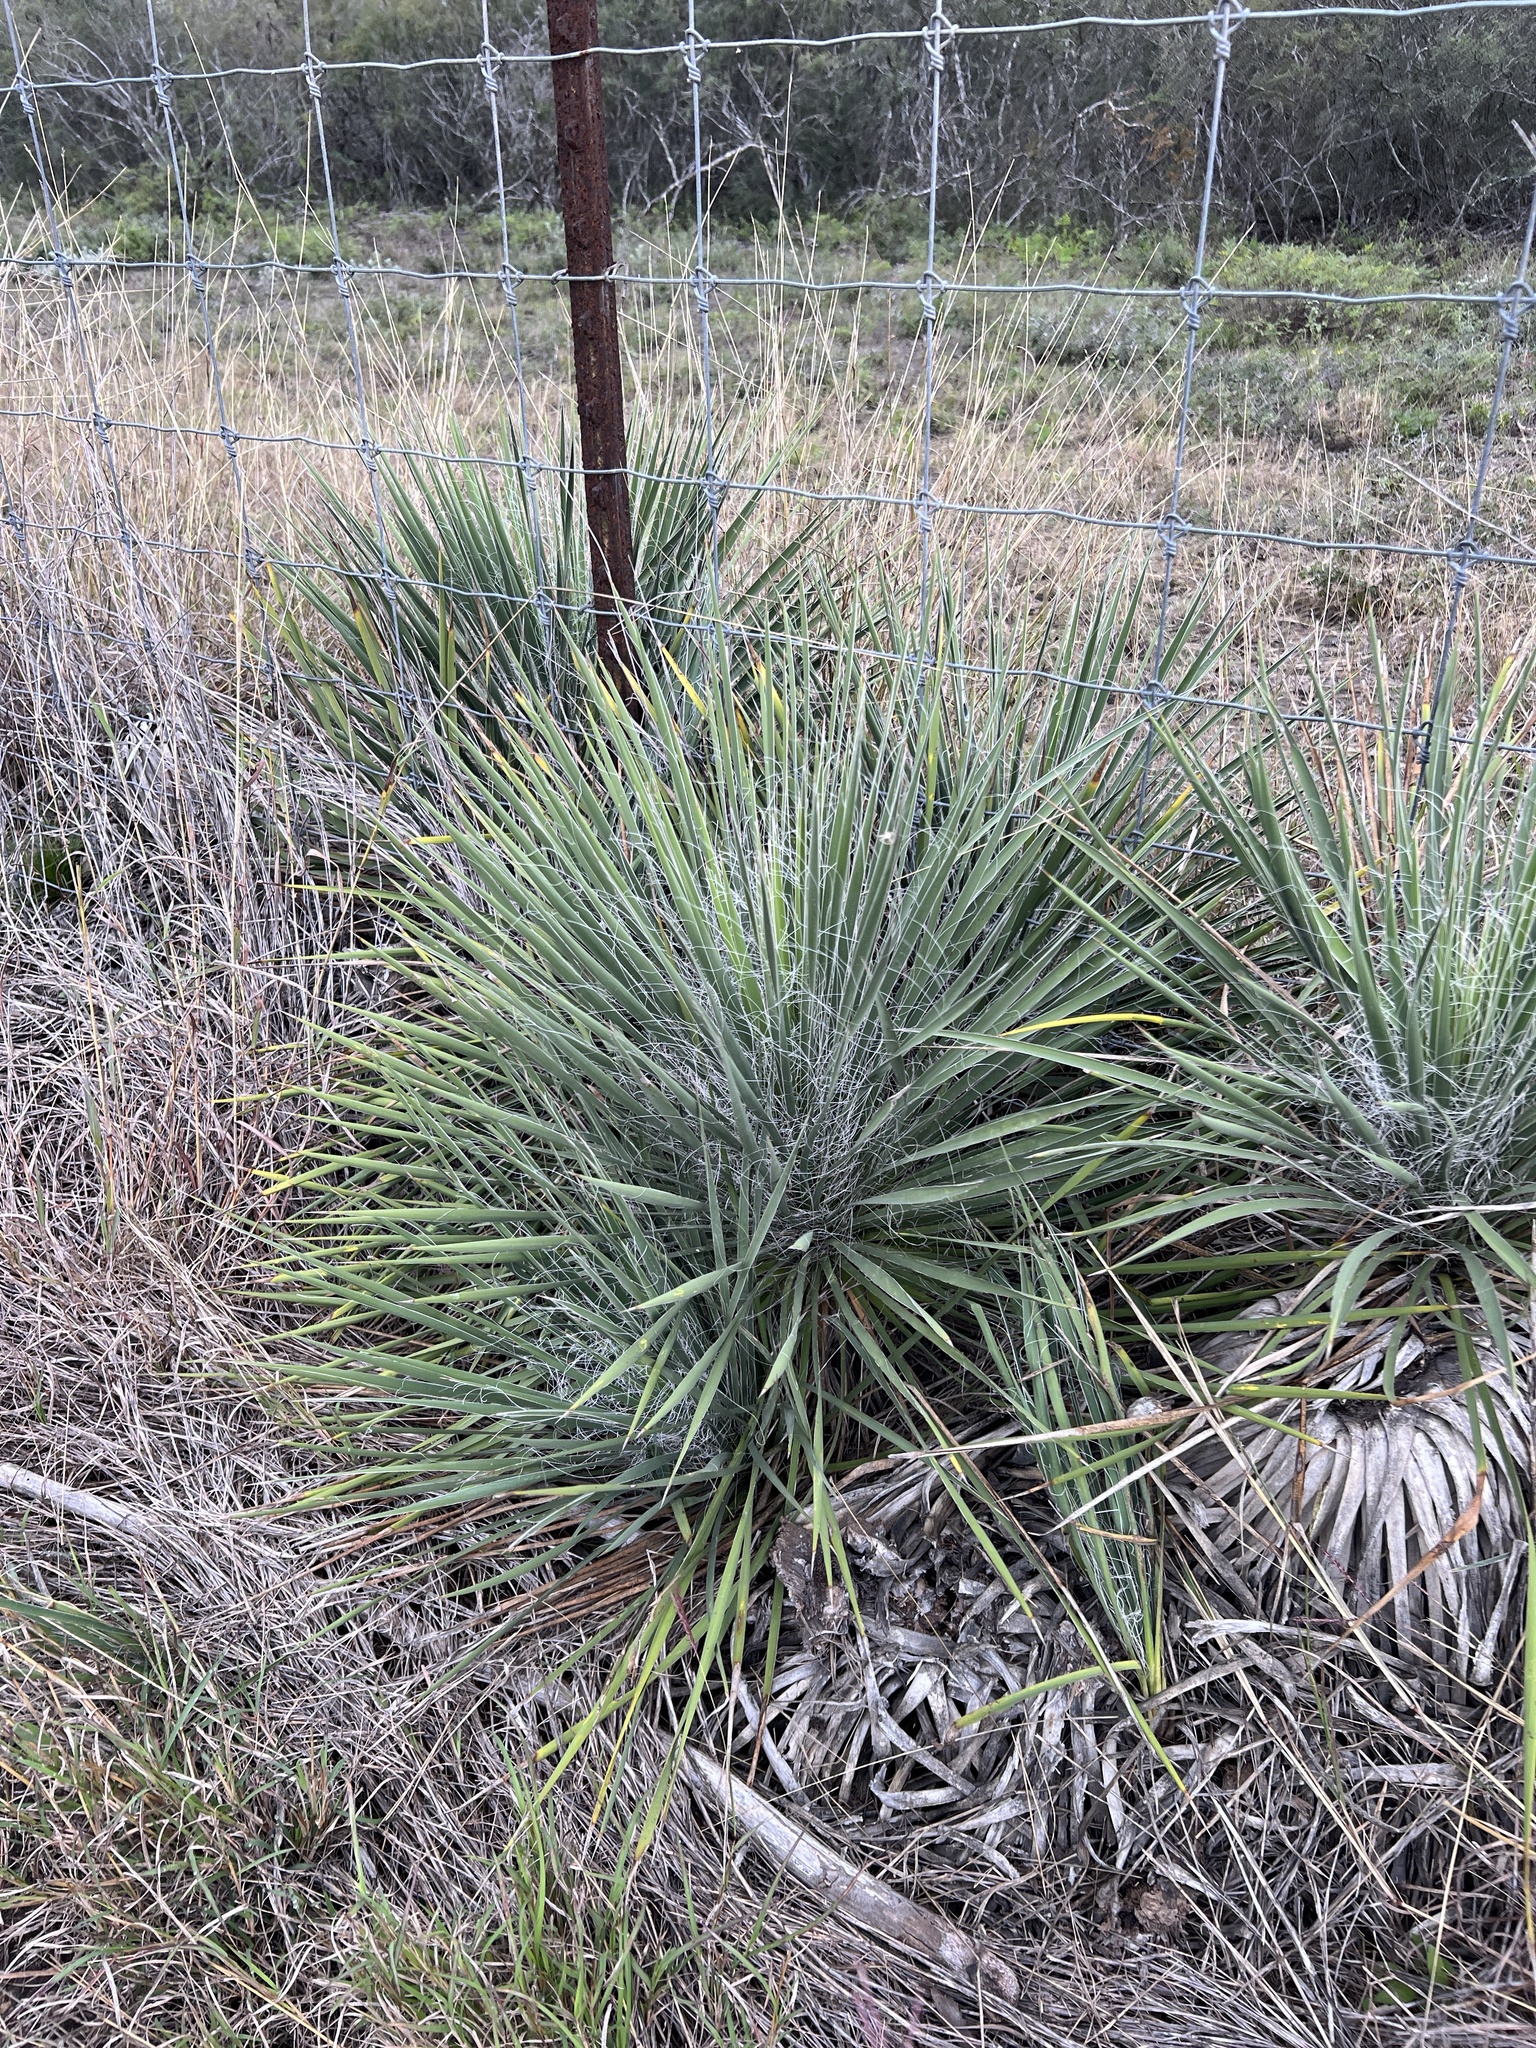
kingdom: Plantae
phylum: Tracheophyta
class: Liliopsida
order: Asparagales
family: Asparagaceae
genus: Yucca
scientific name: Yucca constricta
